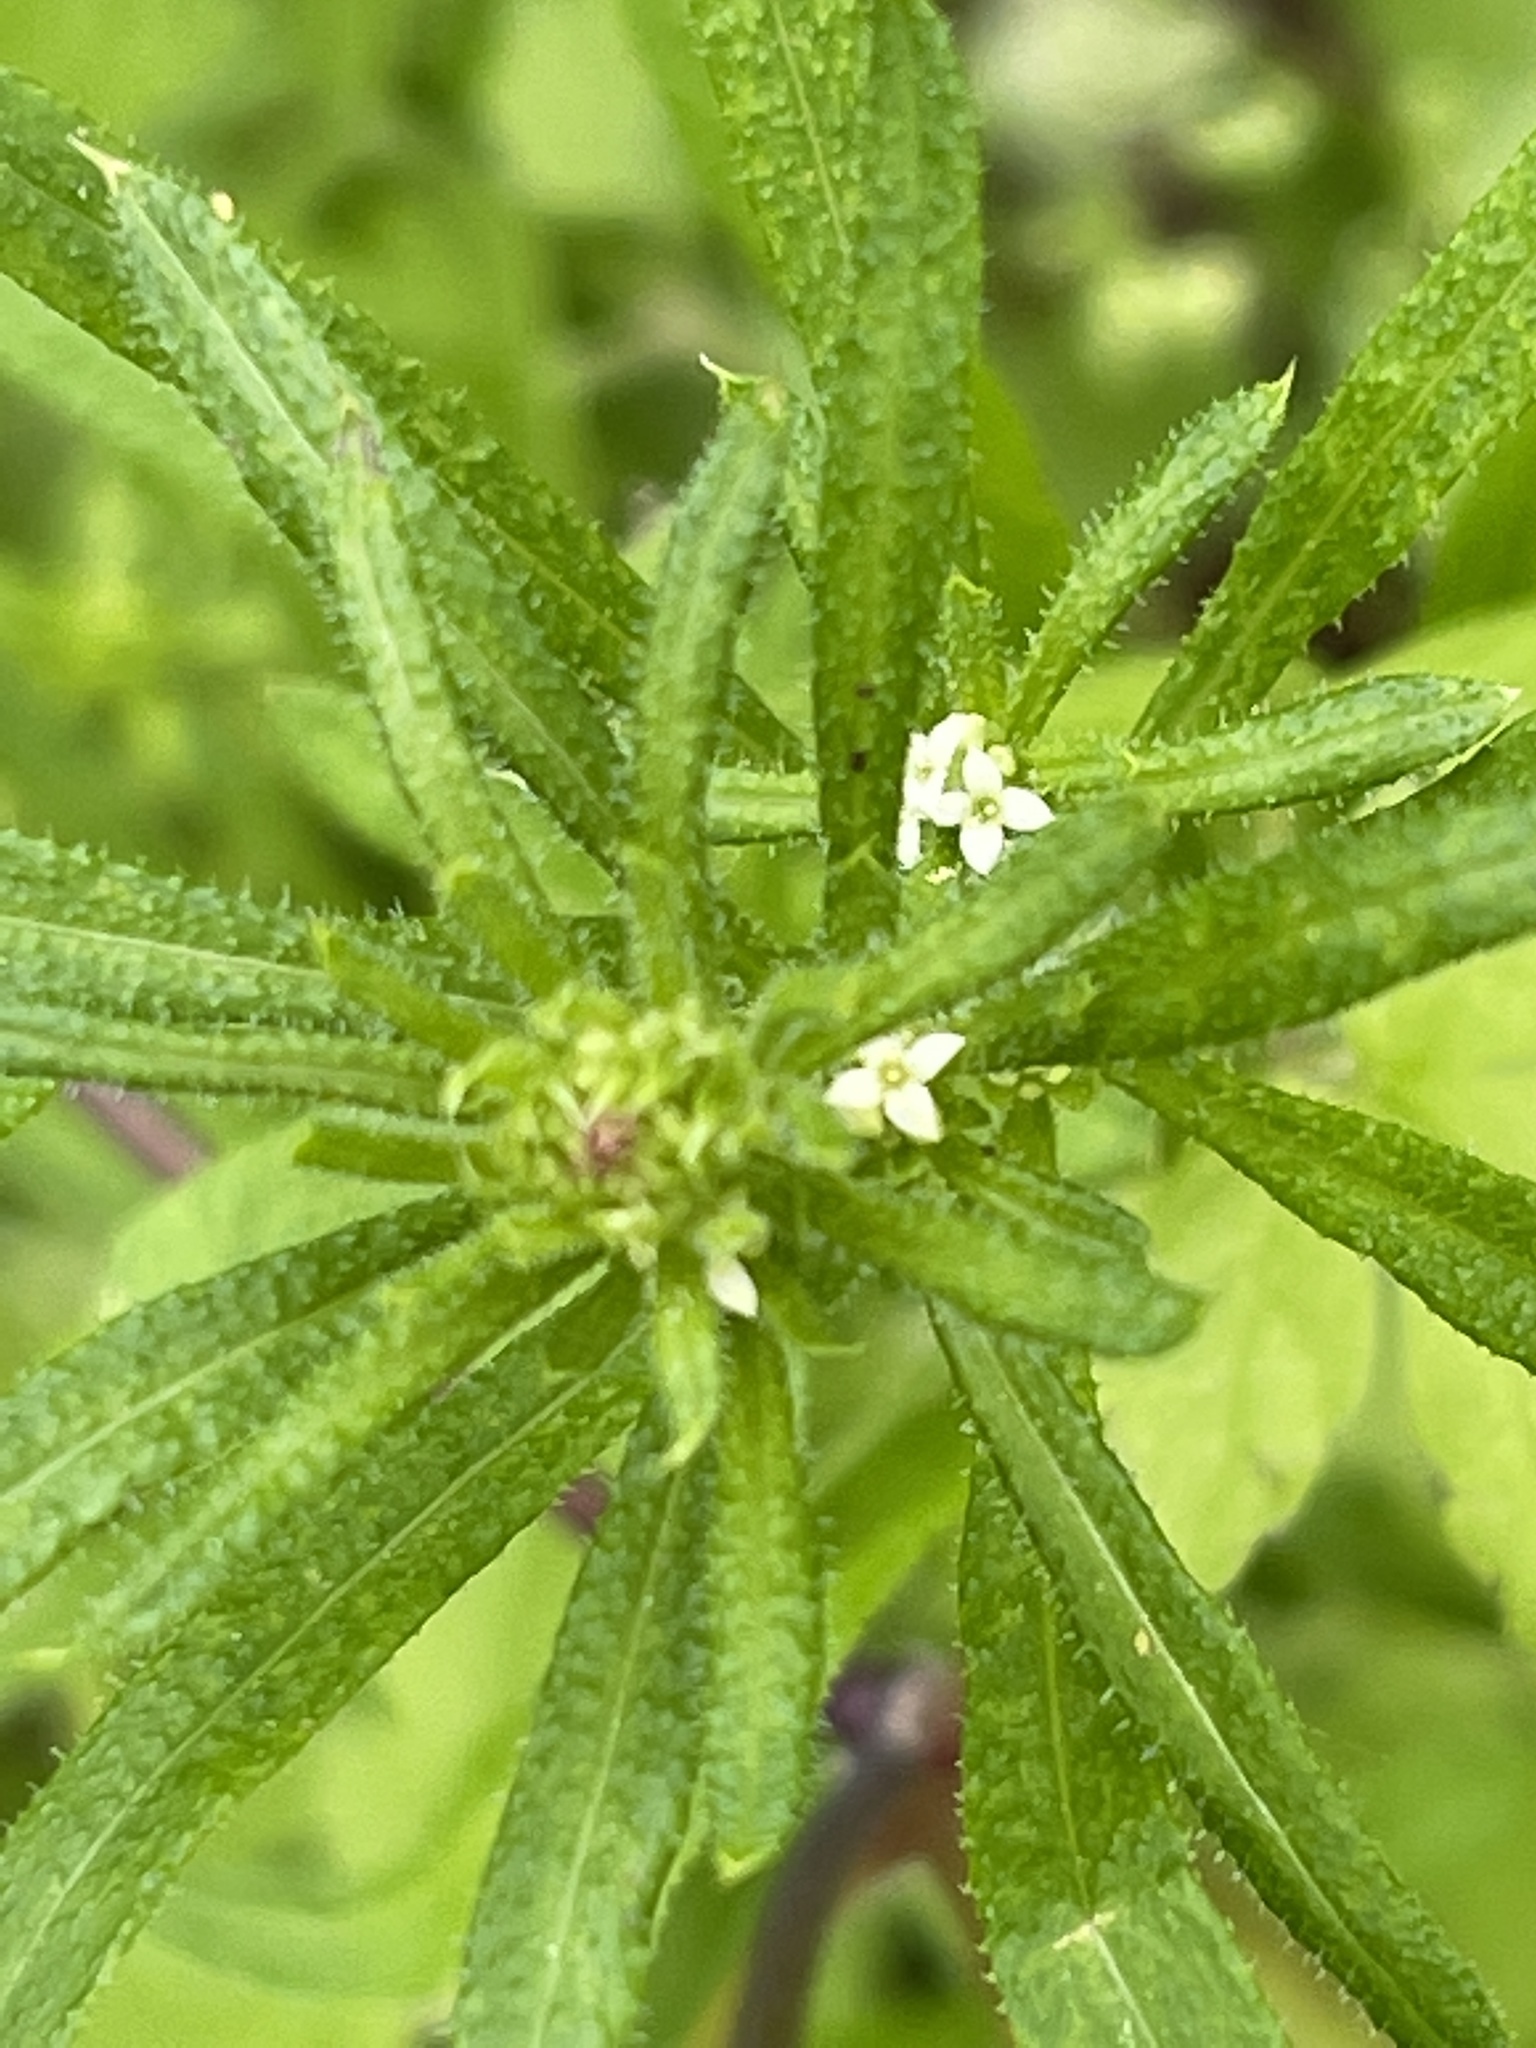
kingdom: Plantae
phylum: Tracheophyta
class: Magnoliopsida
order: Gentianales
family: Rubiaceae
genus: Galium
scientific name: Galium aparine
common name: Cleavers
